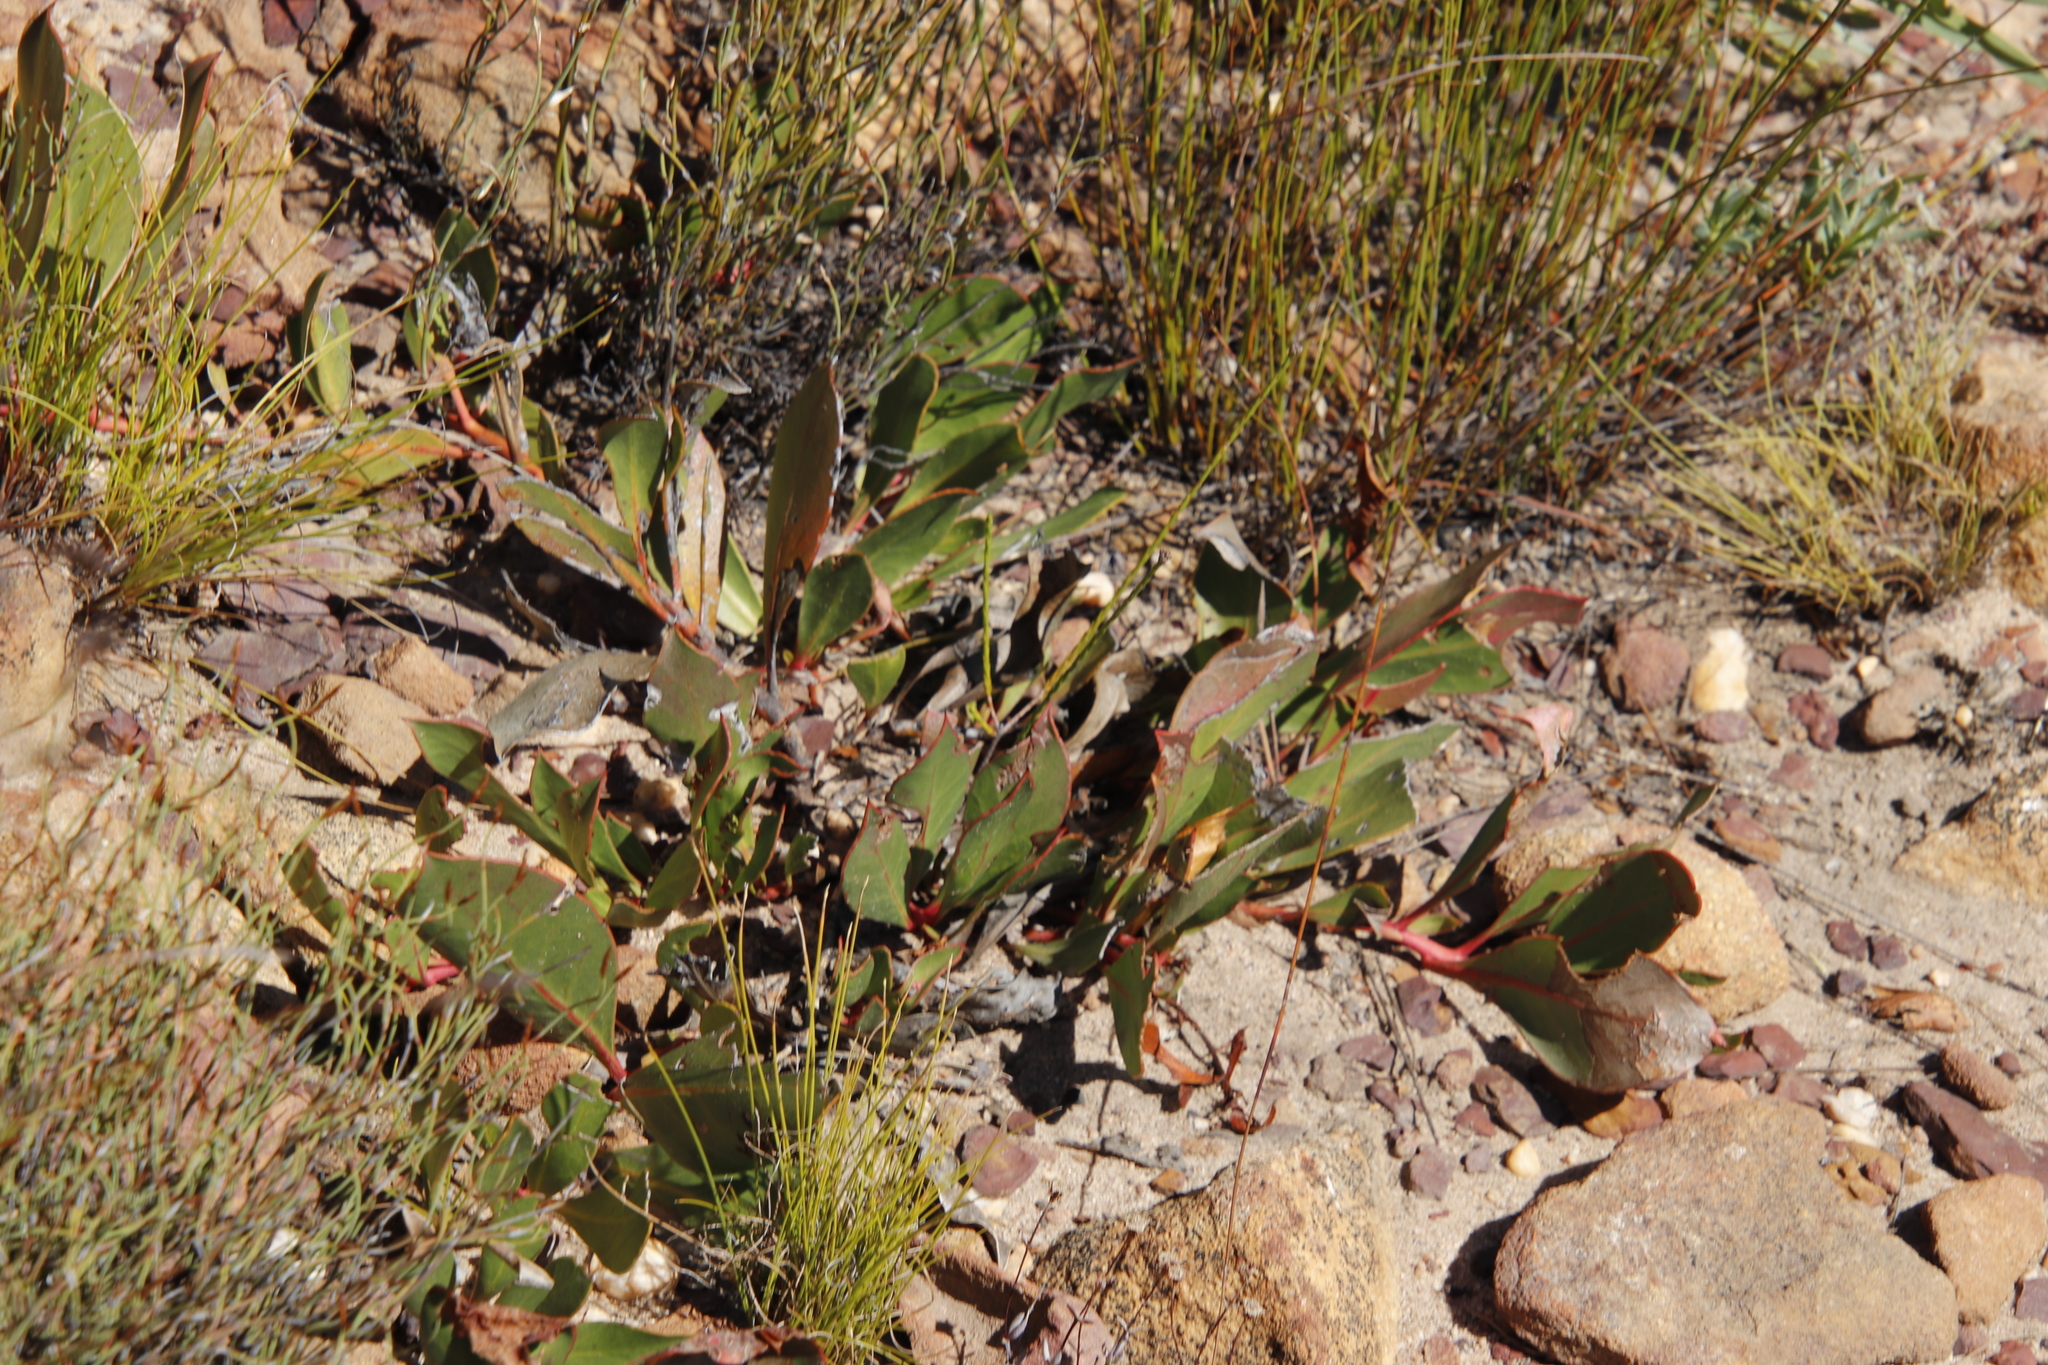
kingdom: Plantae
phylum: Tracheophyta
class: Magnoliopsida
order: Proteales
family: Proteaceae
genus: Protea
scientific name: Protea acaulos
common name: Common ground sugarbush
